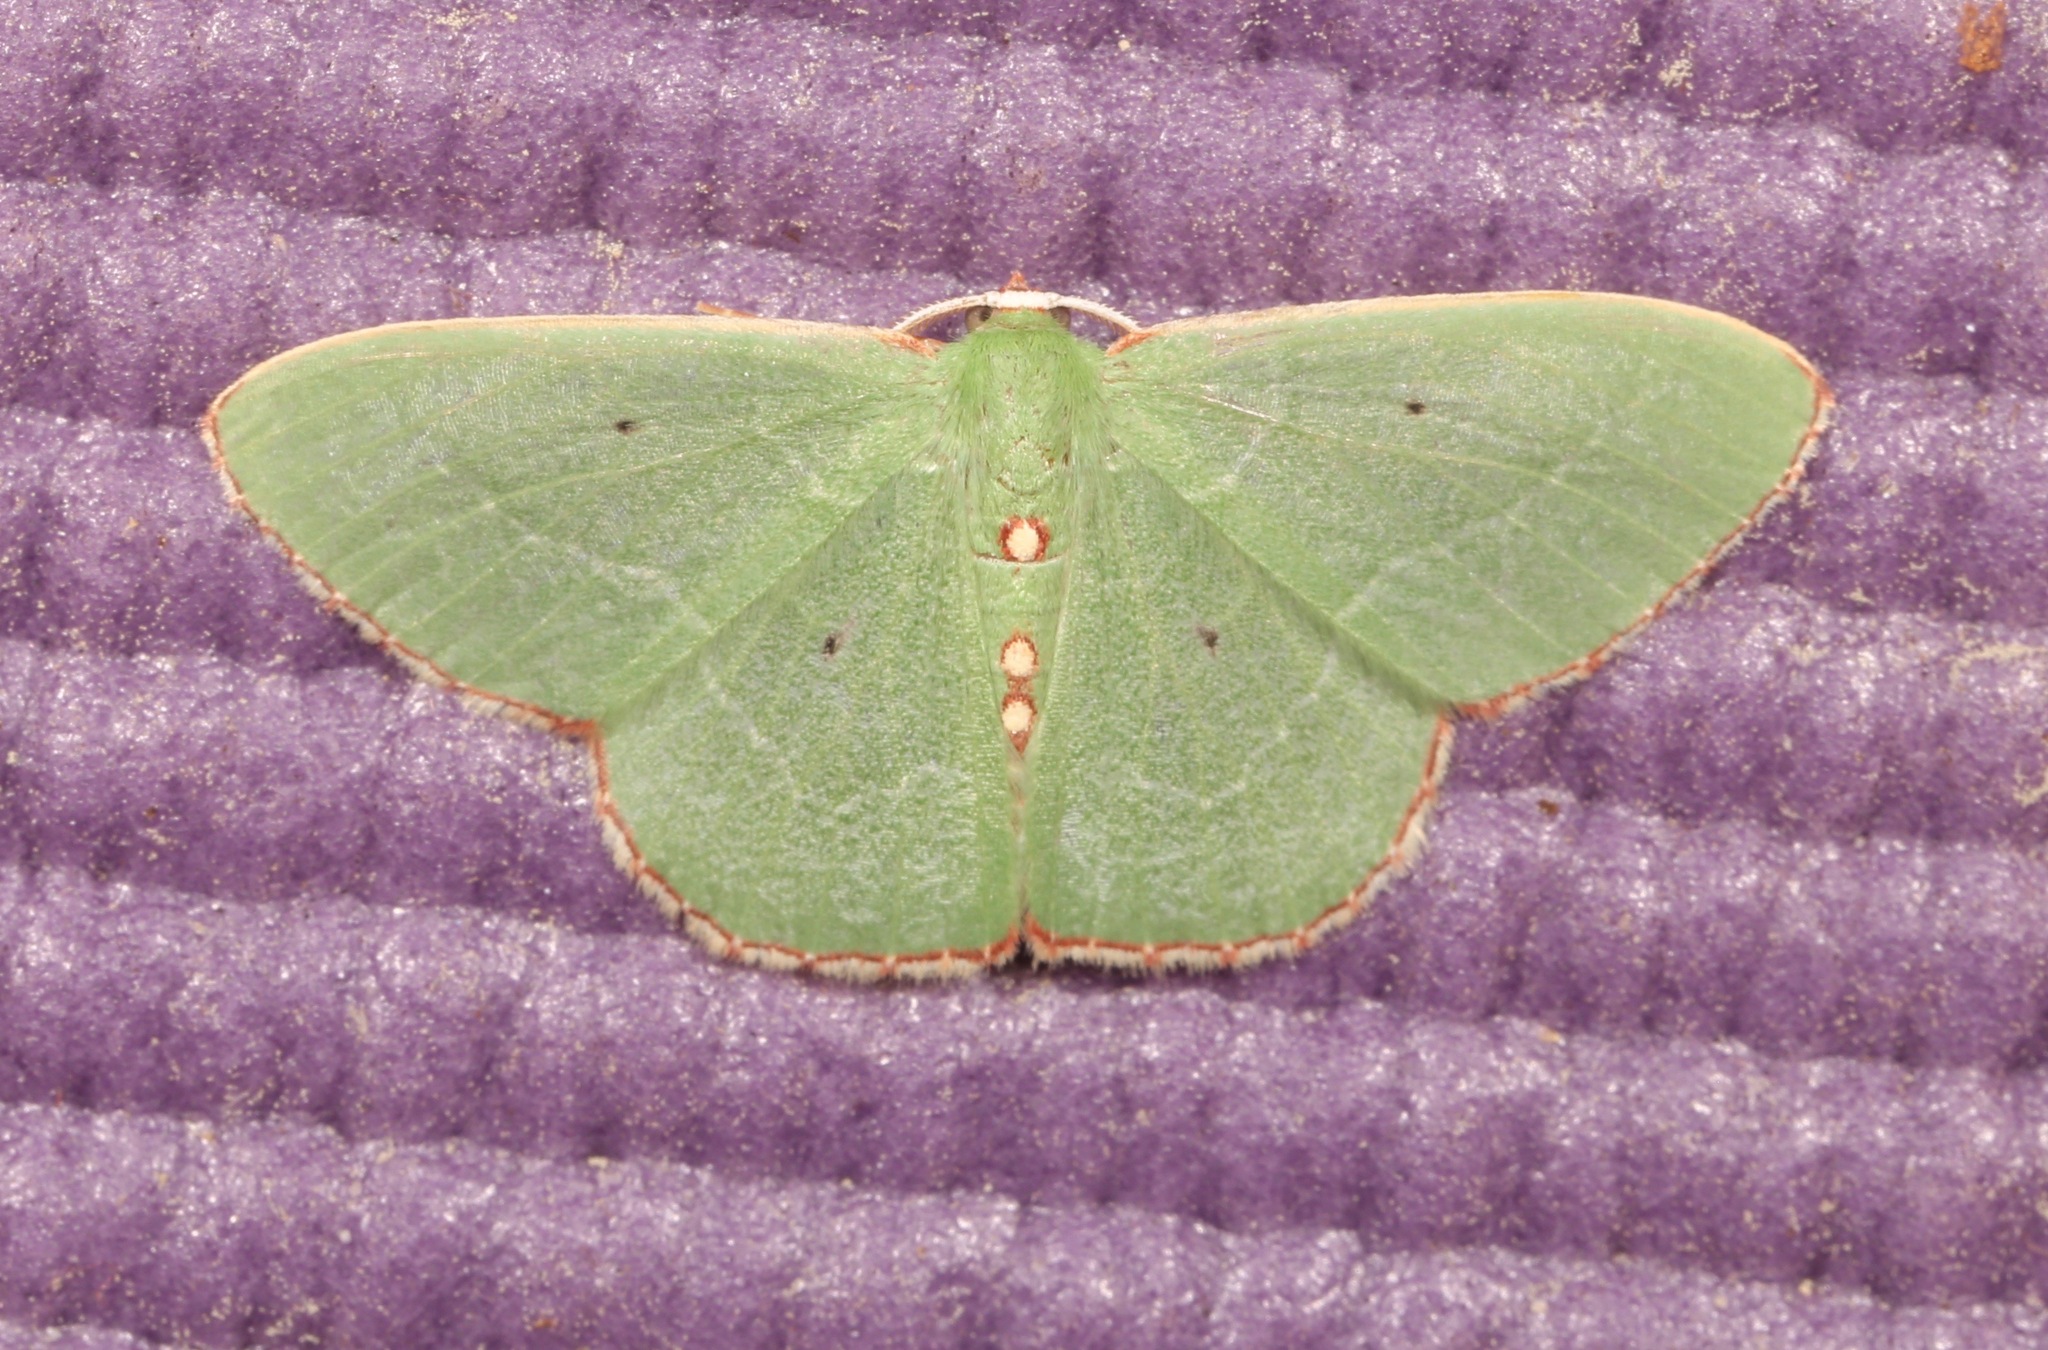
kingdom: Animalia
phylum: Arthropoda
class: Insecta
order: Lepidoptera
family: Geometridae
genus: Nemoria
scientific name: Nemoria lixaria
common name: Red-bordered emerald
